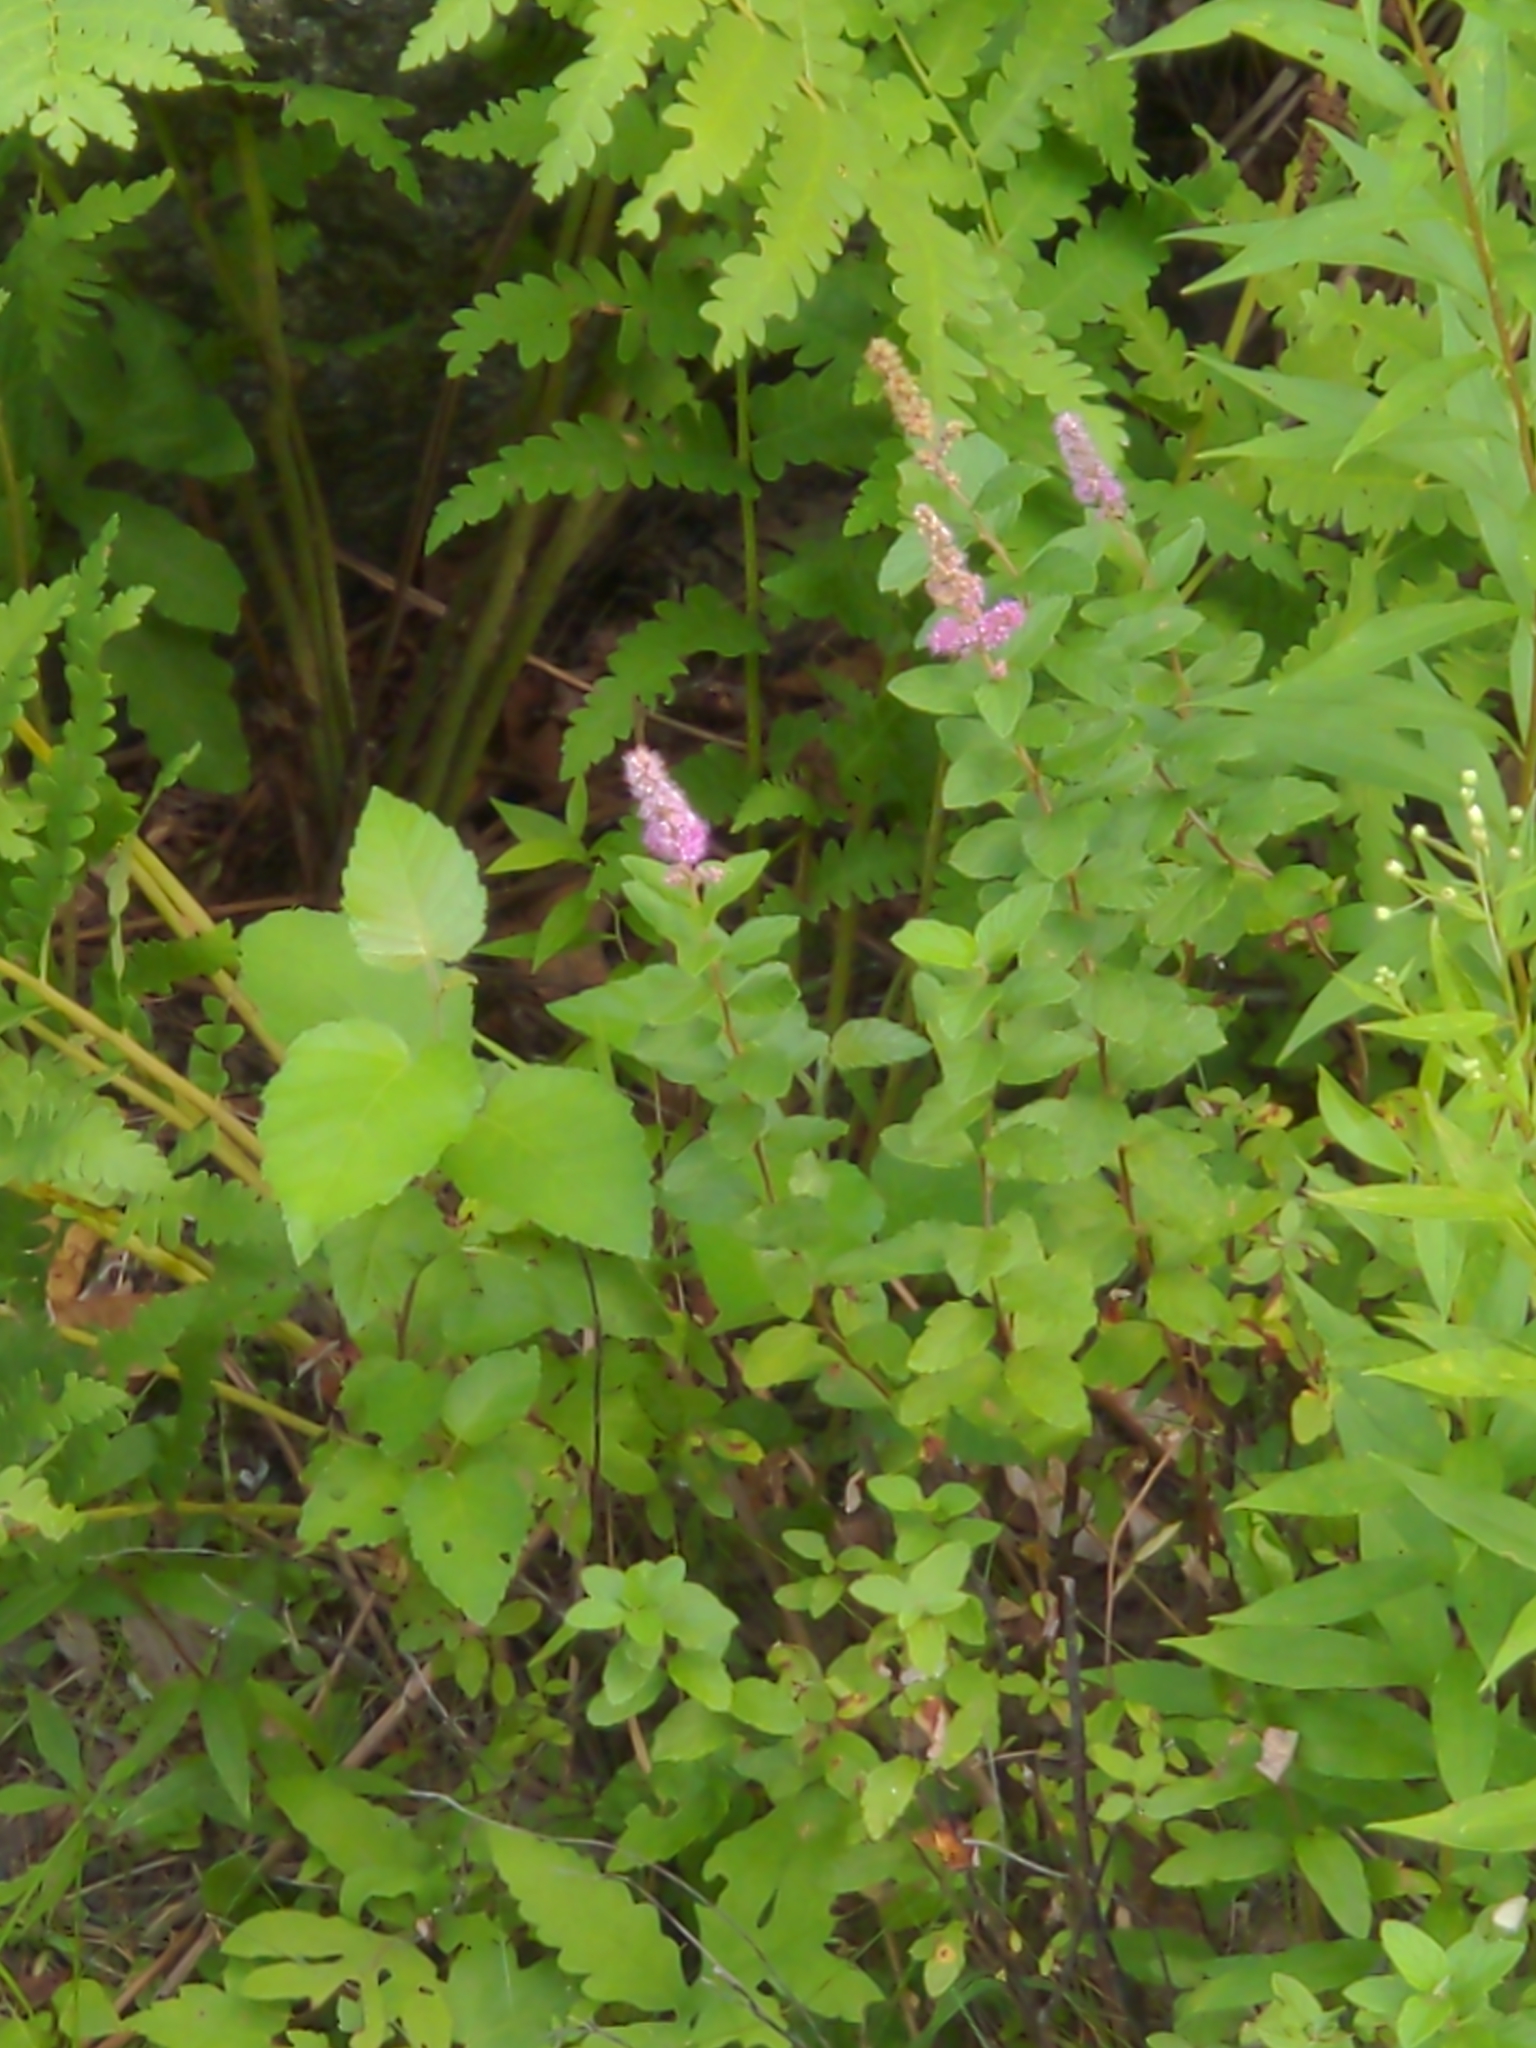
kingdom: Plantae
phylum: Tracheophyta
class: Magnoliopsida
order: Rosales
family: Rosaceae
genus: Spiraea
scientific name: Spiraea tomentosa
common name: Hardhack
